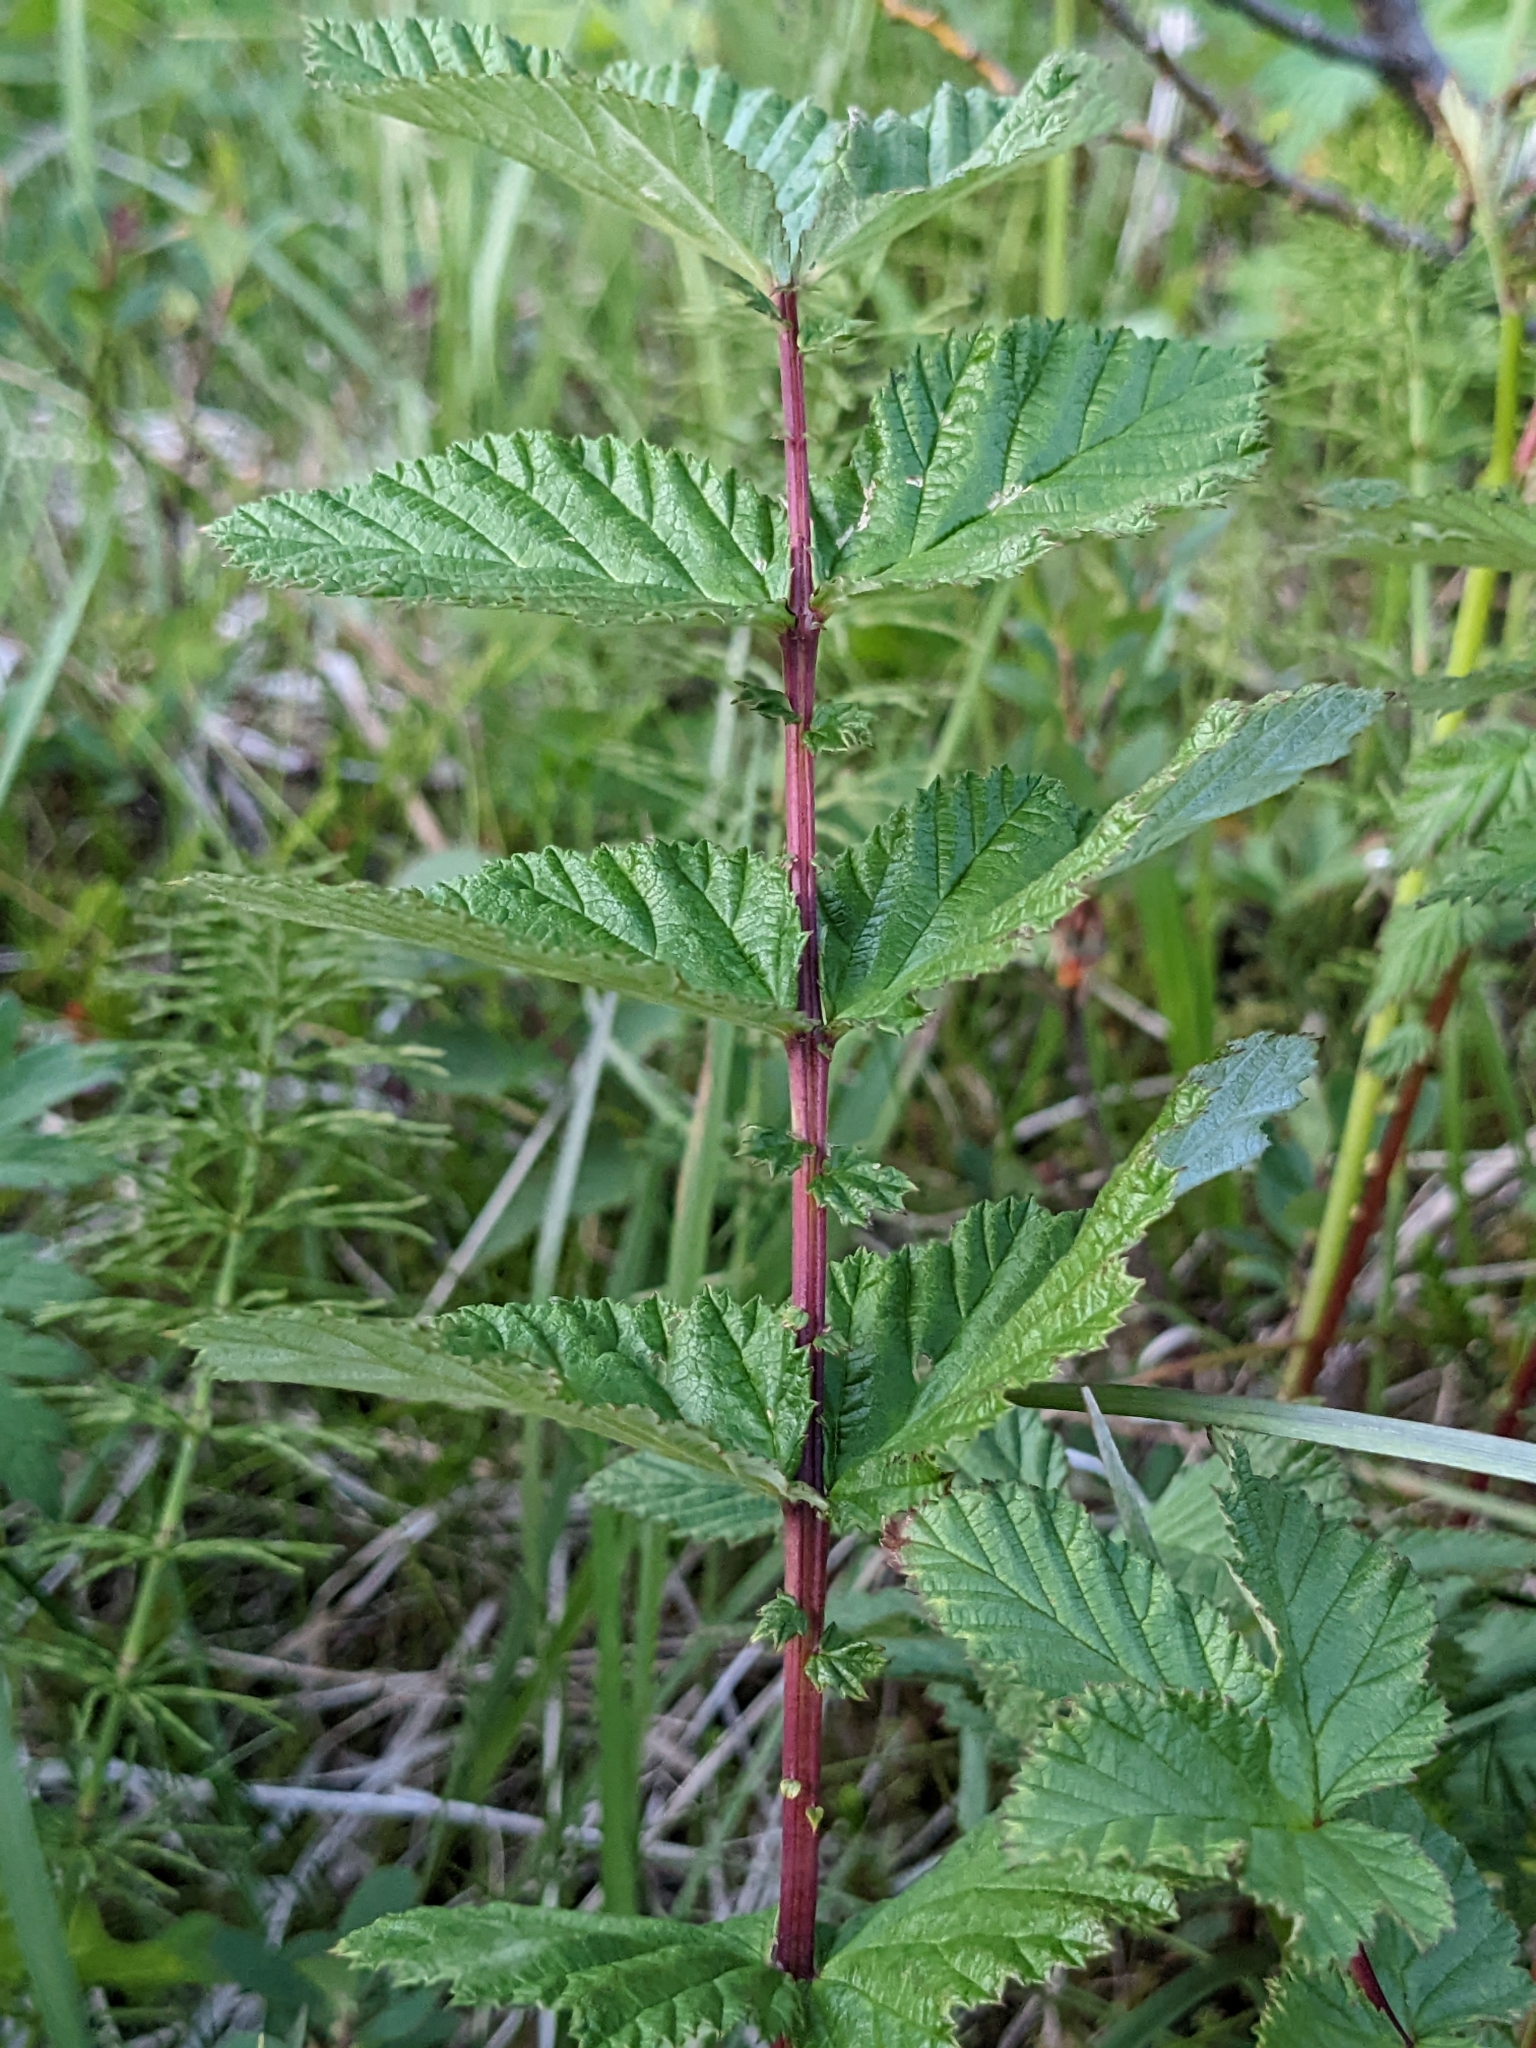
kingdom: Plantae
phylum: Tracheophyta
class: Magnoliopsida
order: Rosales
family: Rosaceae
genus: Filipendula
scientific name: Filipendula ulmaria
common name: Meadowsweet
